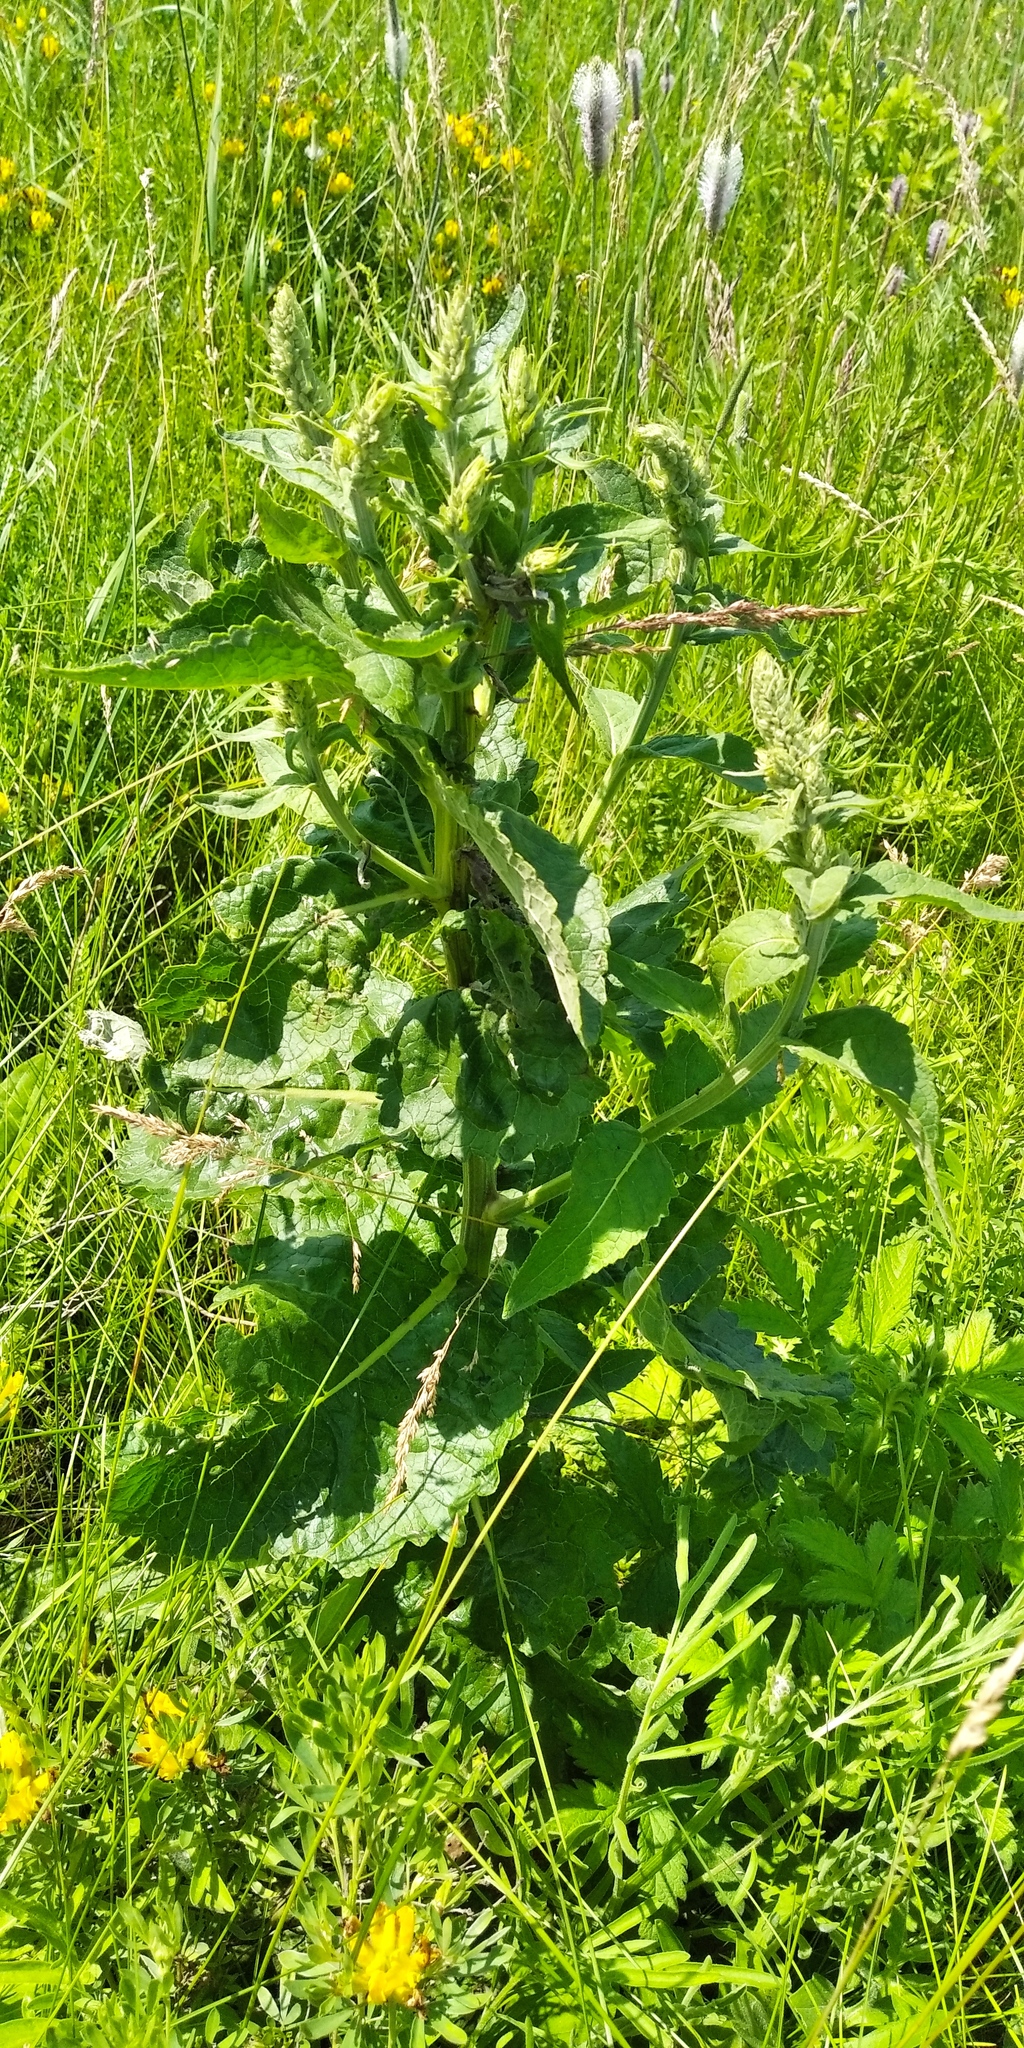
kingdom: Plantae
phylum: Tracheophyta
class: Magnoliopsida
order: Lamiales
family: Scrophulariaceae
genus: Verbascum
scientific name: Verbascum lychnitis
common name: White mullein
